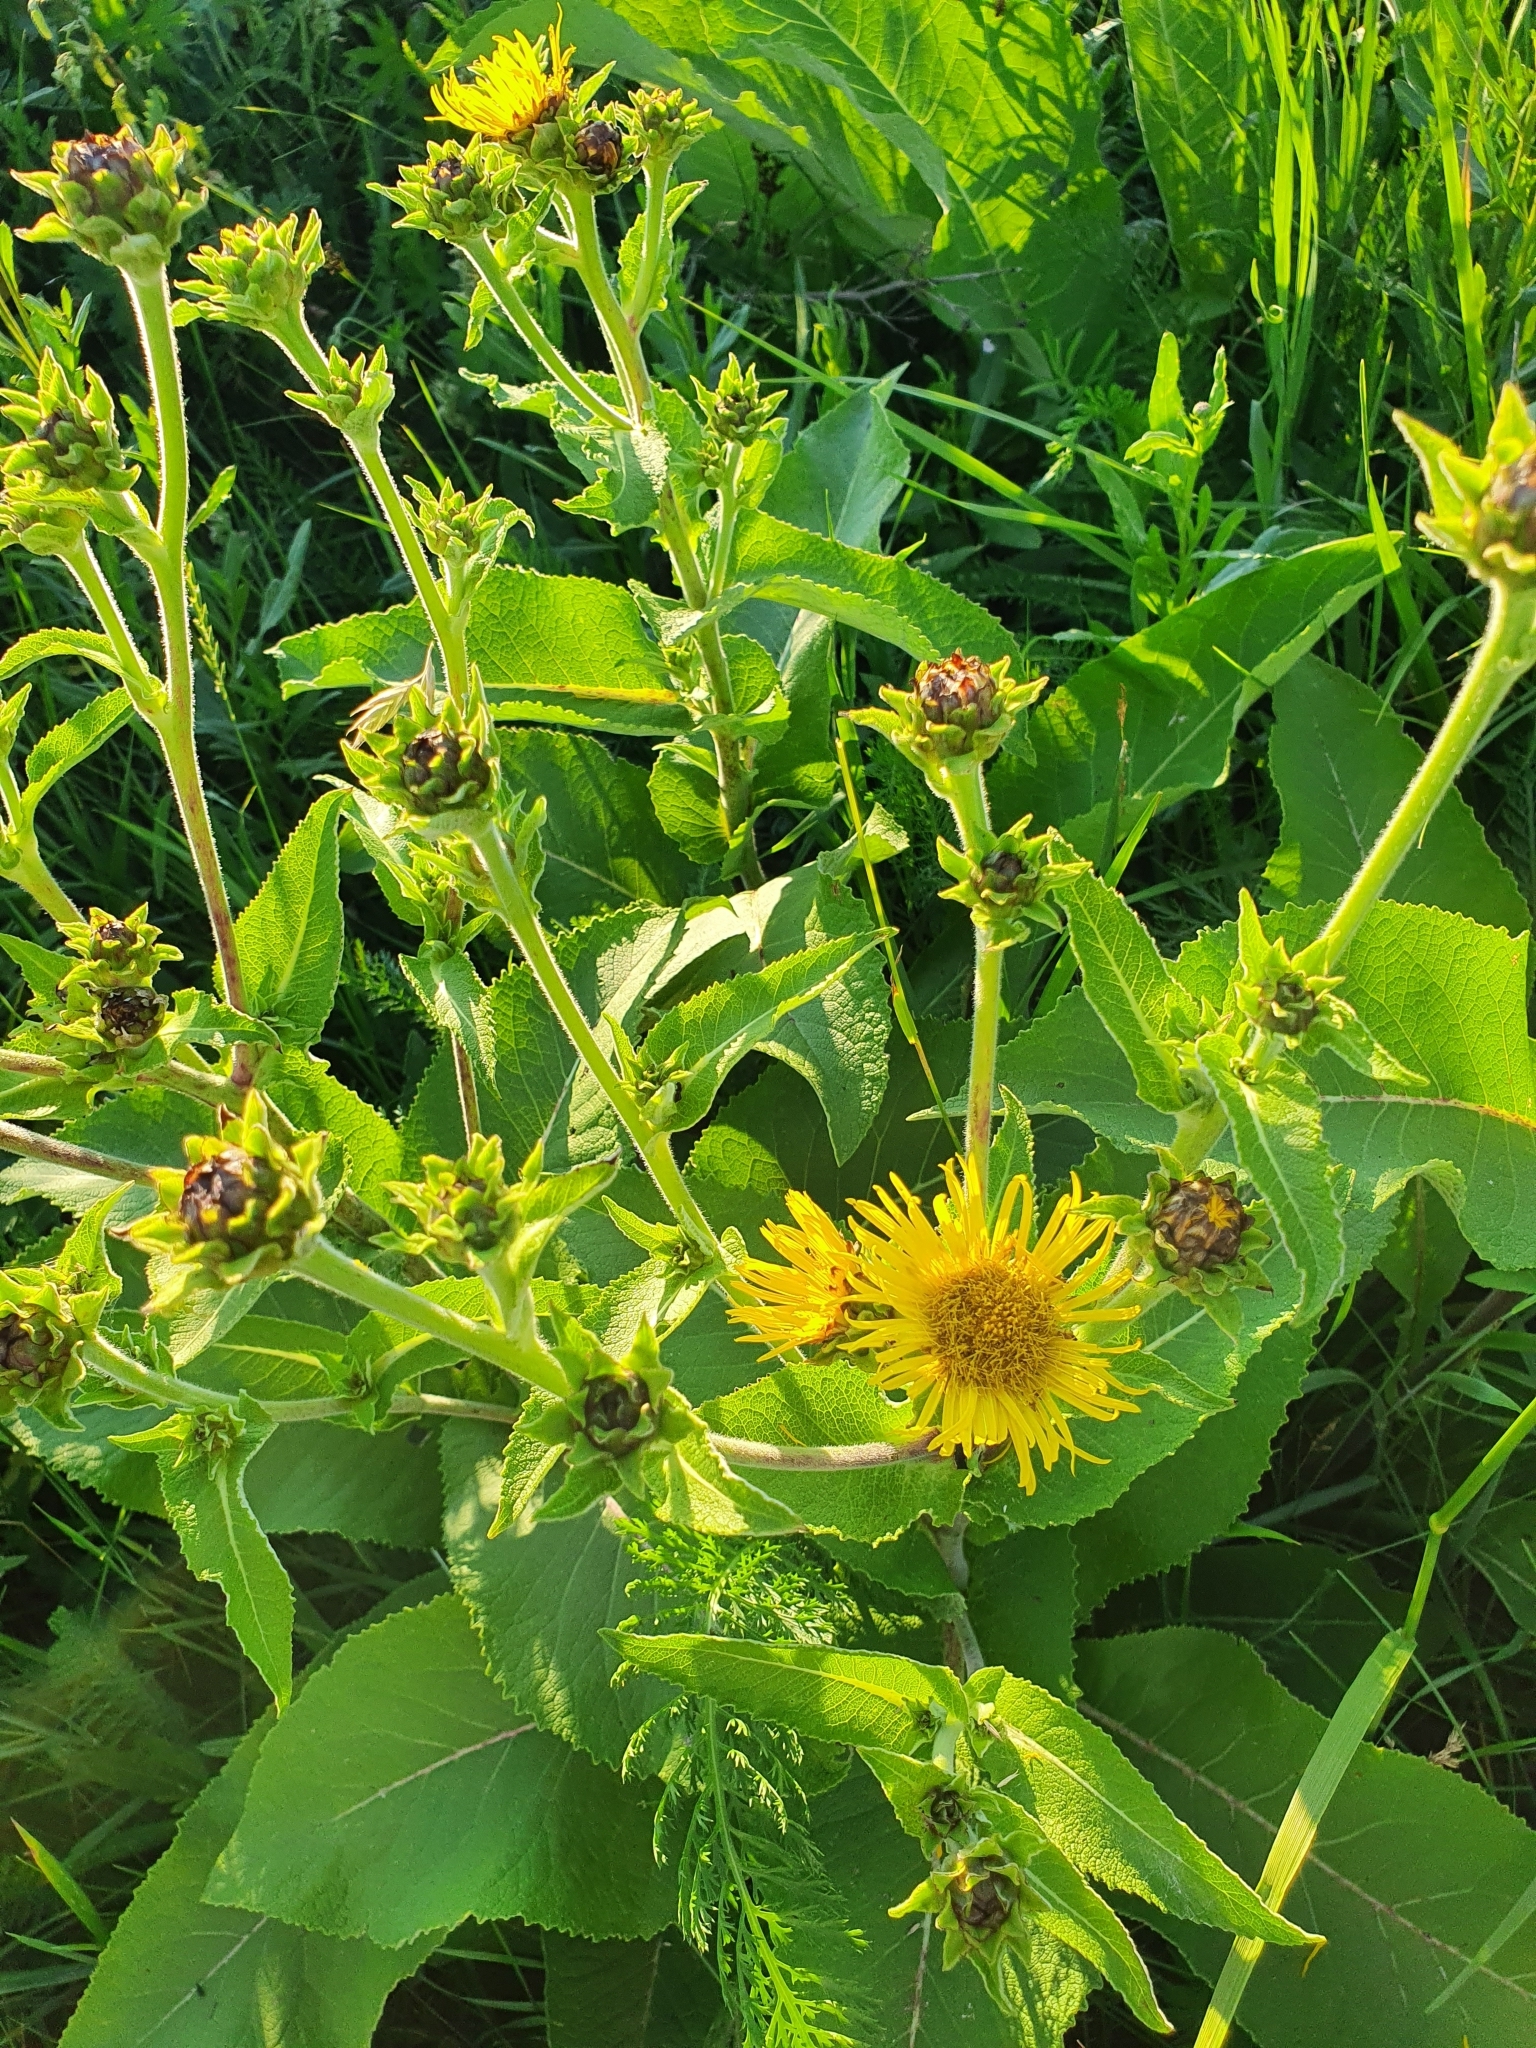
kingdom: Plantae
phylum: Tracheophyta
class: Magnoliopsida
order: Asterales
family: Asteraceae
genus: Inula
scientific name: Inula helenium
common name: Elecampane
